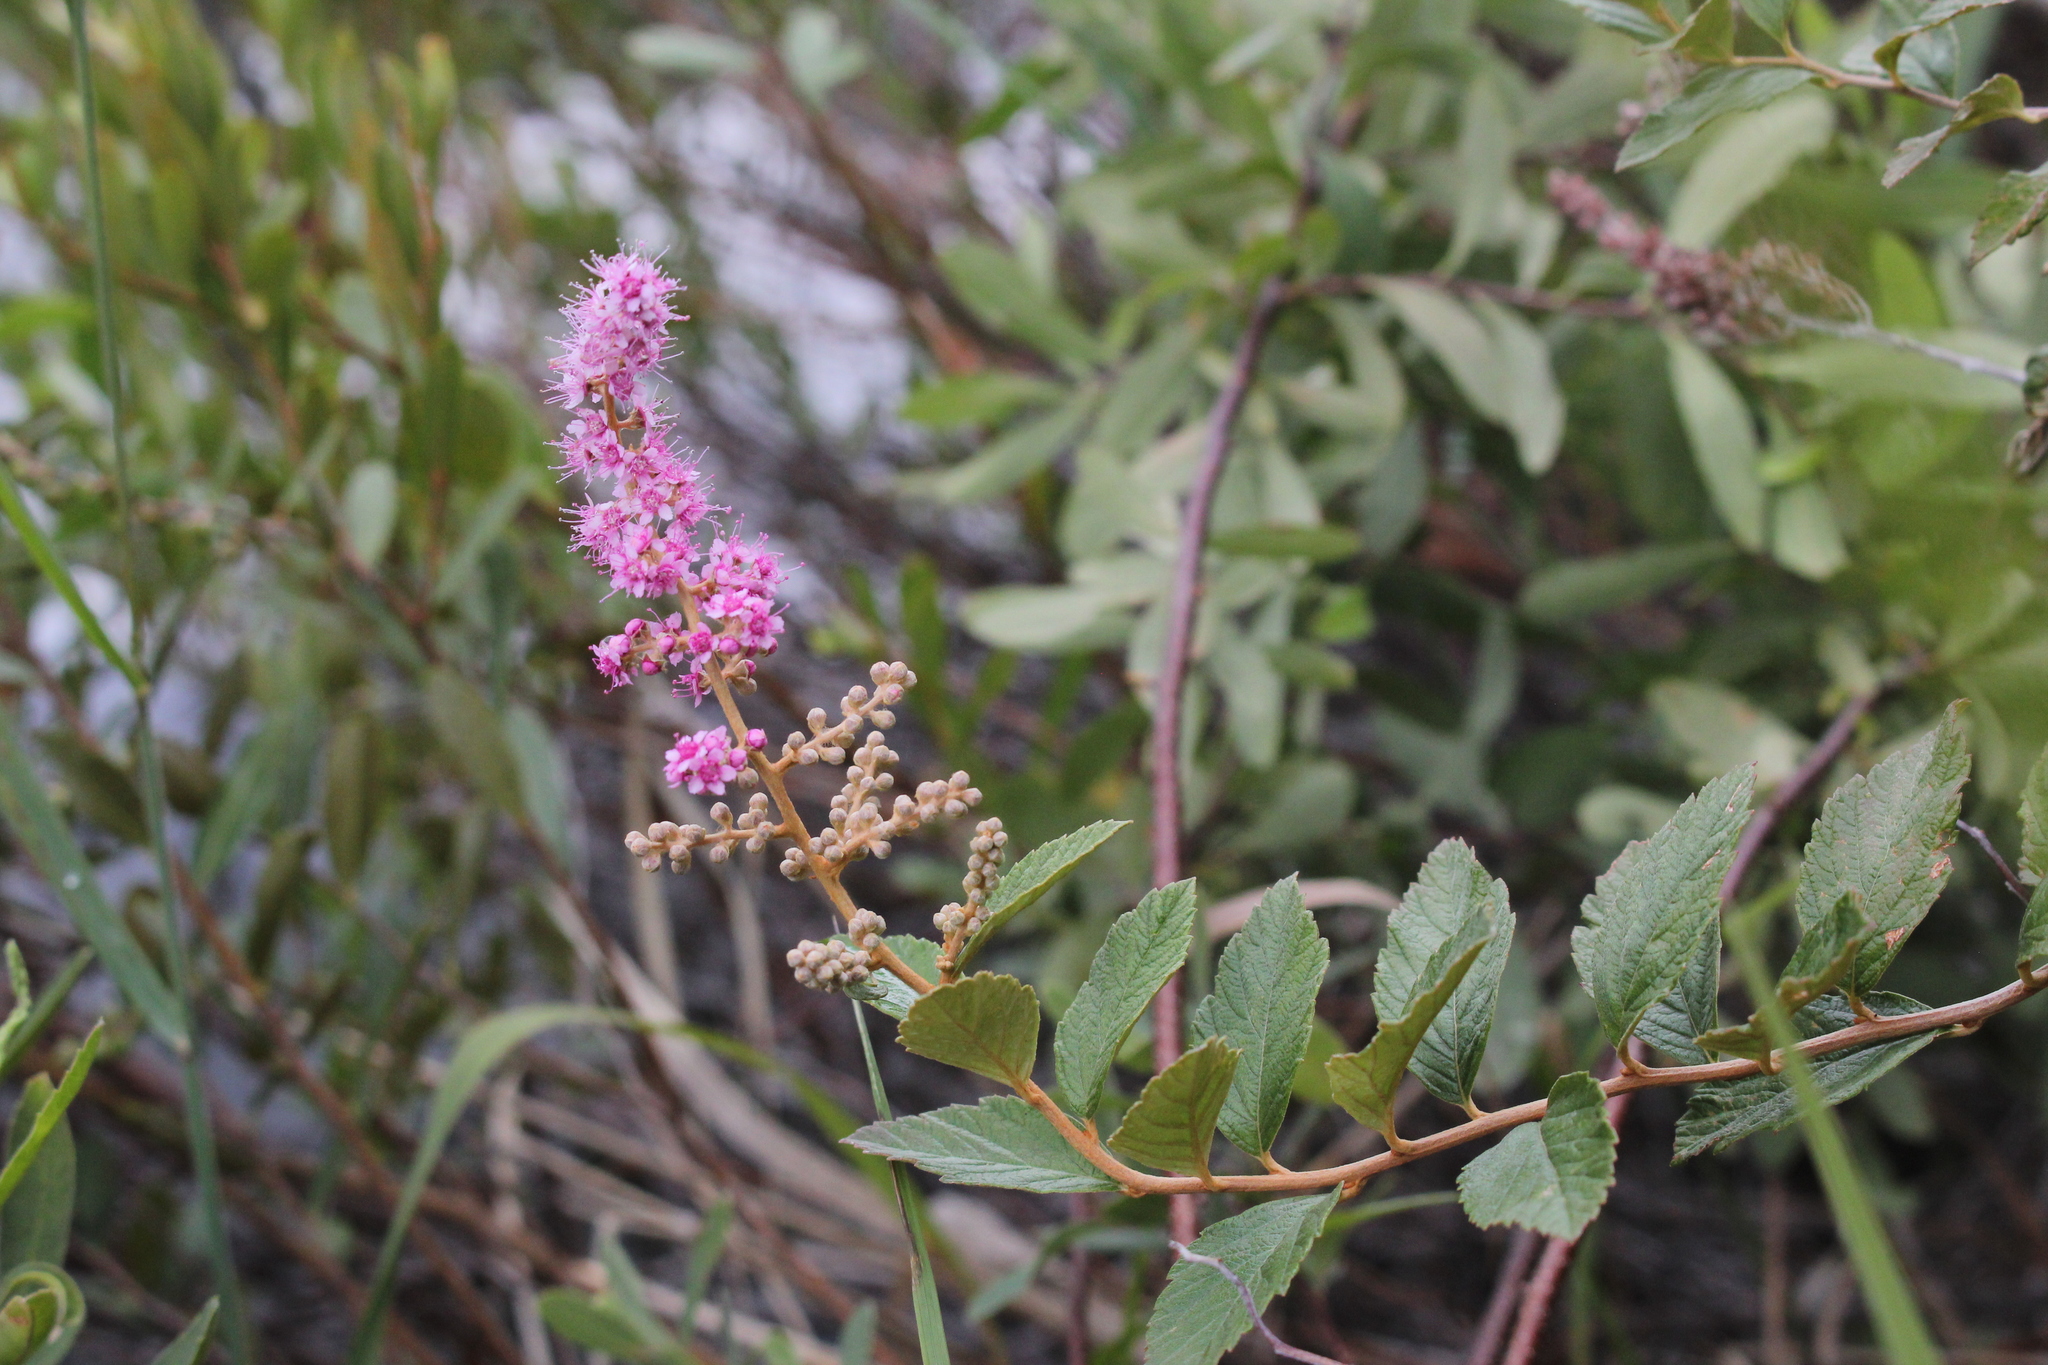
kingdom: Plantae
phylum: Tracheophyta
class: Magnoliopsida
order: Rosales
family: Rosaceae
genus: Spiraea
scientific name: Spiraea tomentosa
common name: Hardhack
